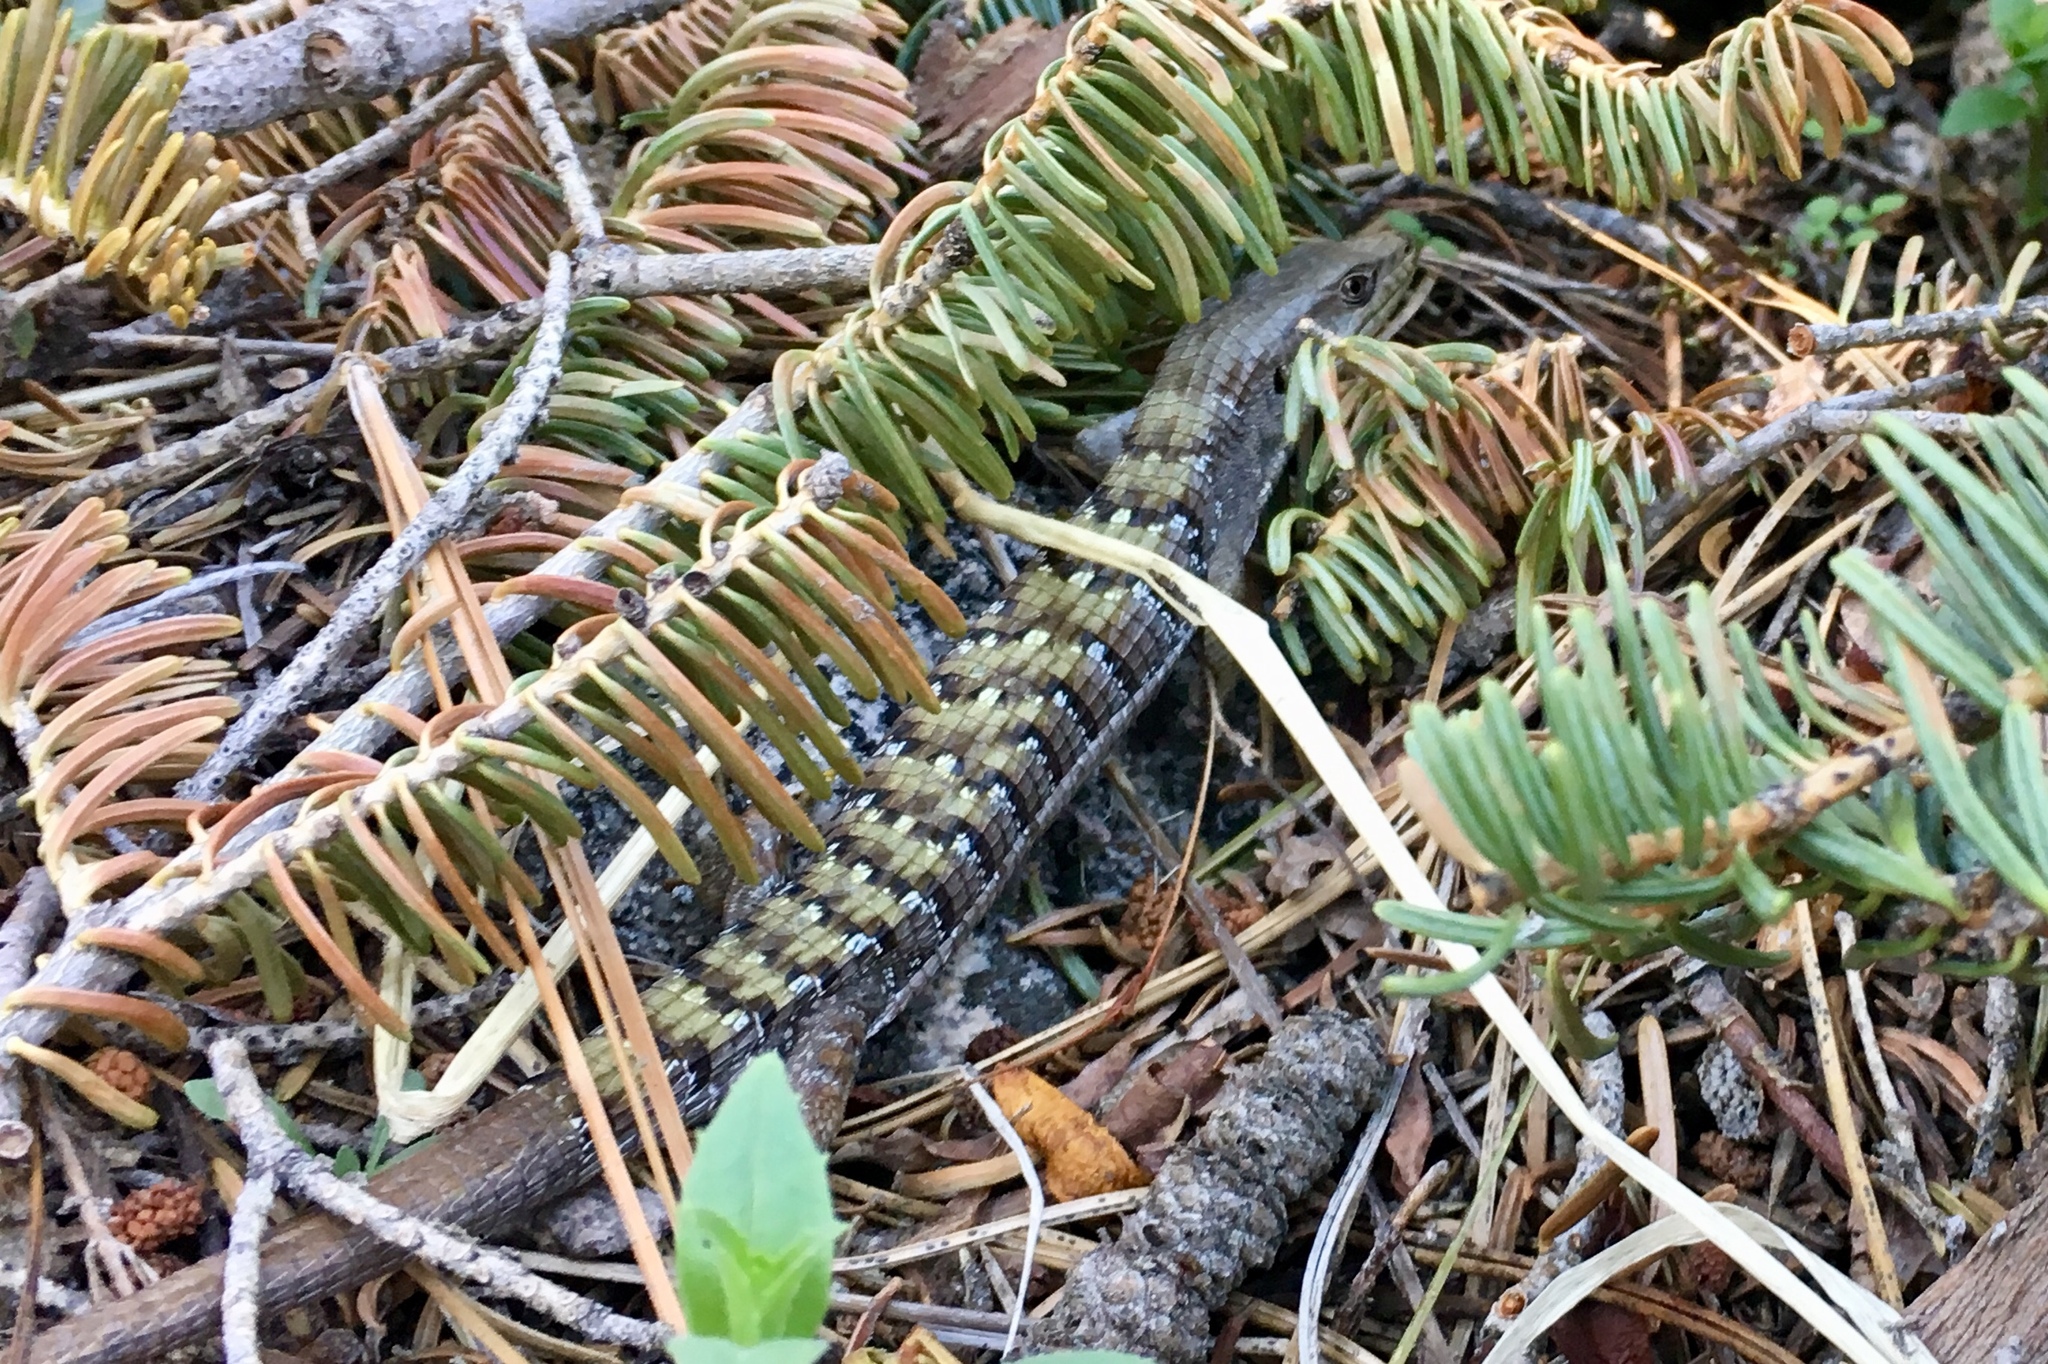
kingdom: Animalia
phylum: Chordata
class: Squamata
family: Anguidae
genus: Elgaria
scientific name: Elgaria multicarinata
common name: Southern alligator lizard
